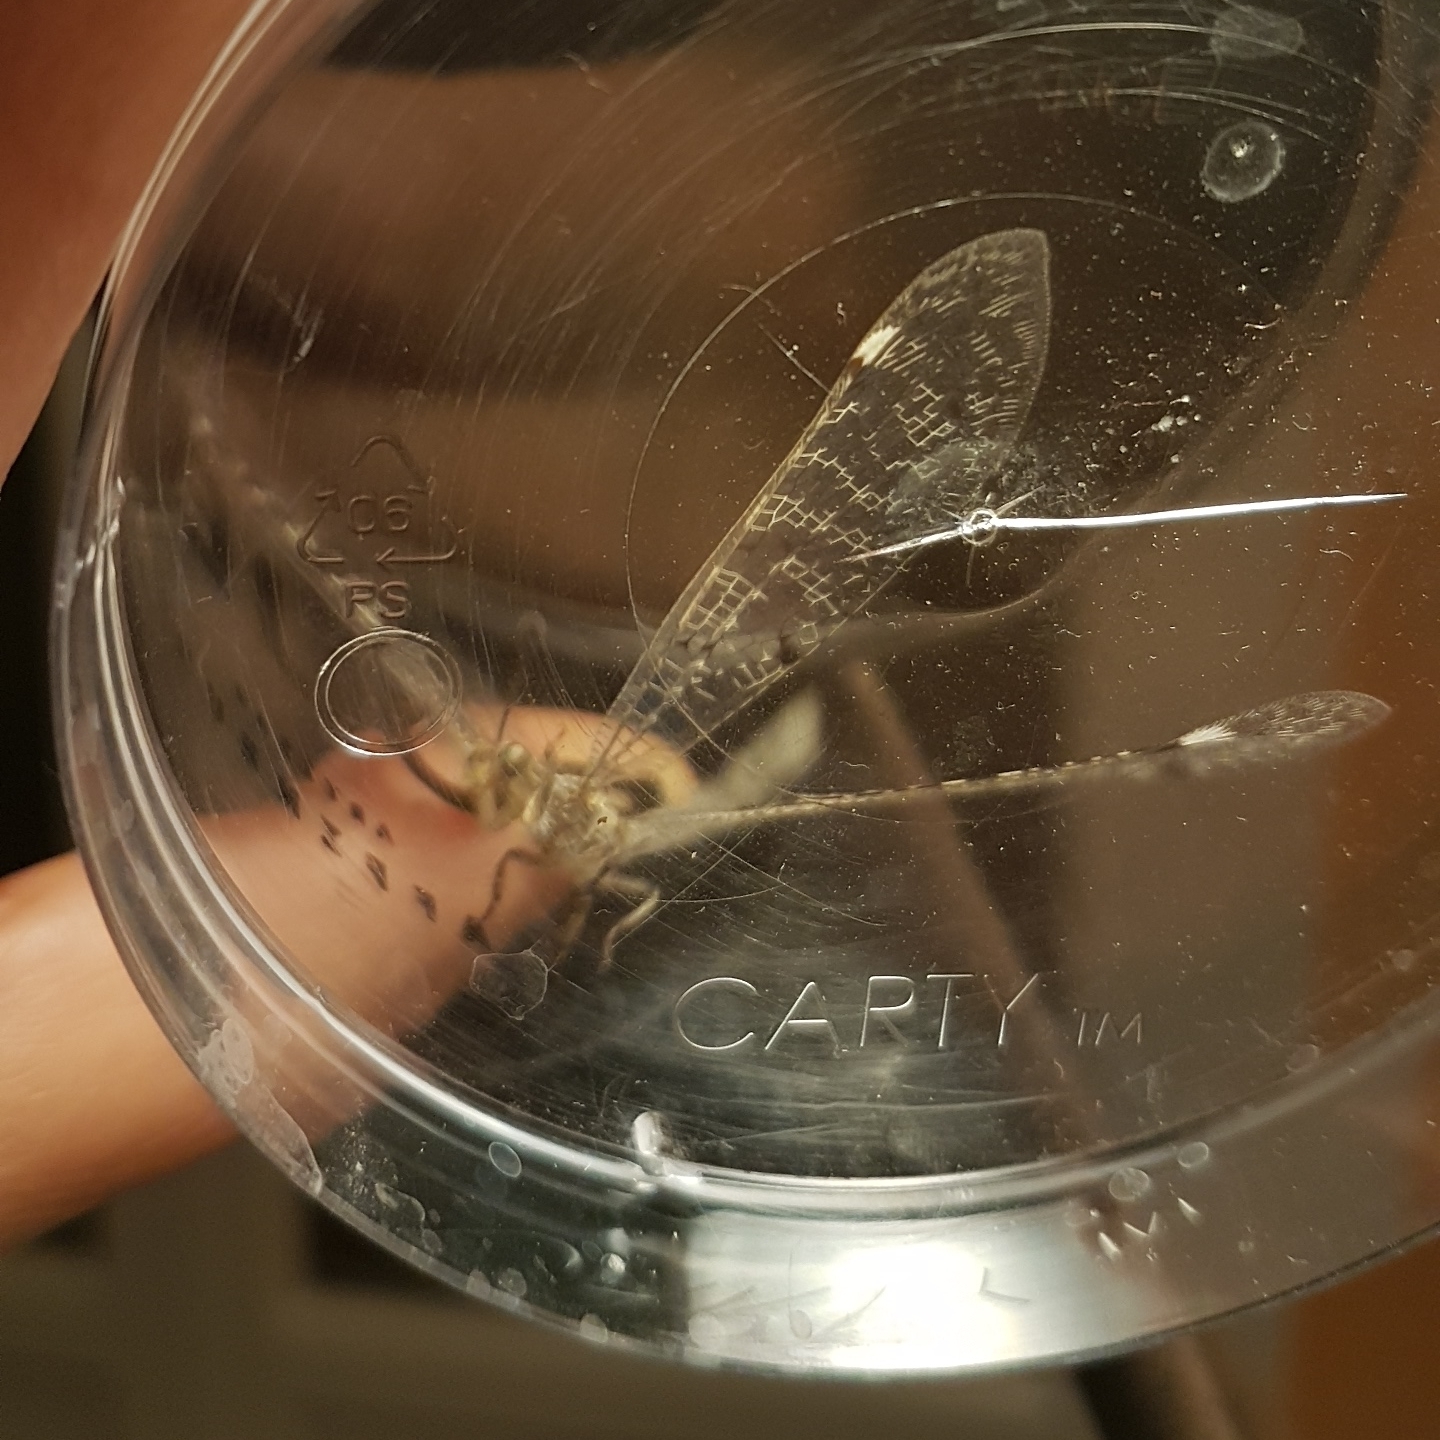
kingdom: Animalia
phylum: Arthropoda
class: Insecta
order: Neuroptera
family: Myrmeleontidae
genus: Distoleon
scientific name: Distoleon tetragrammicus
